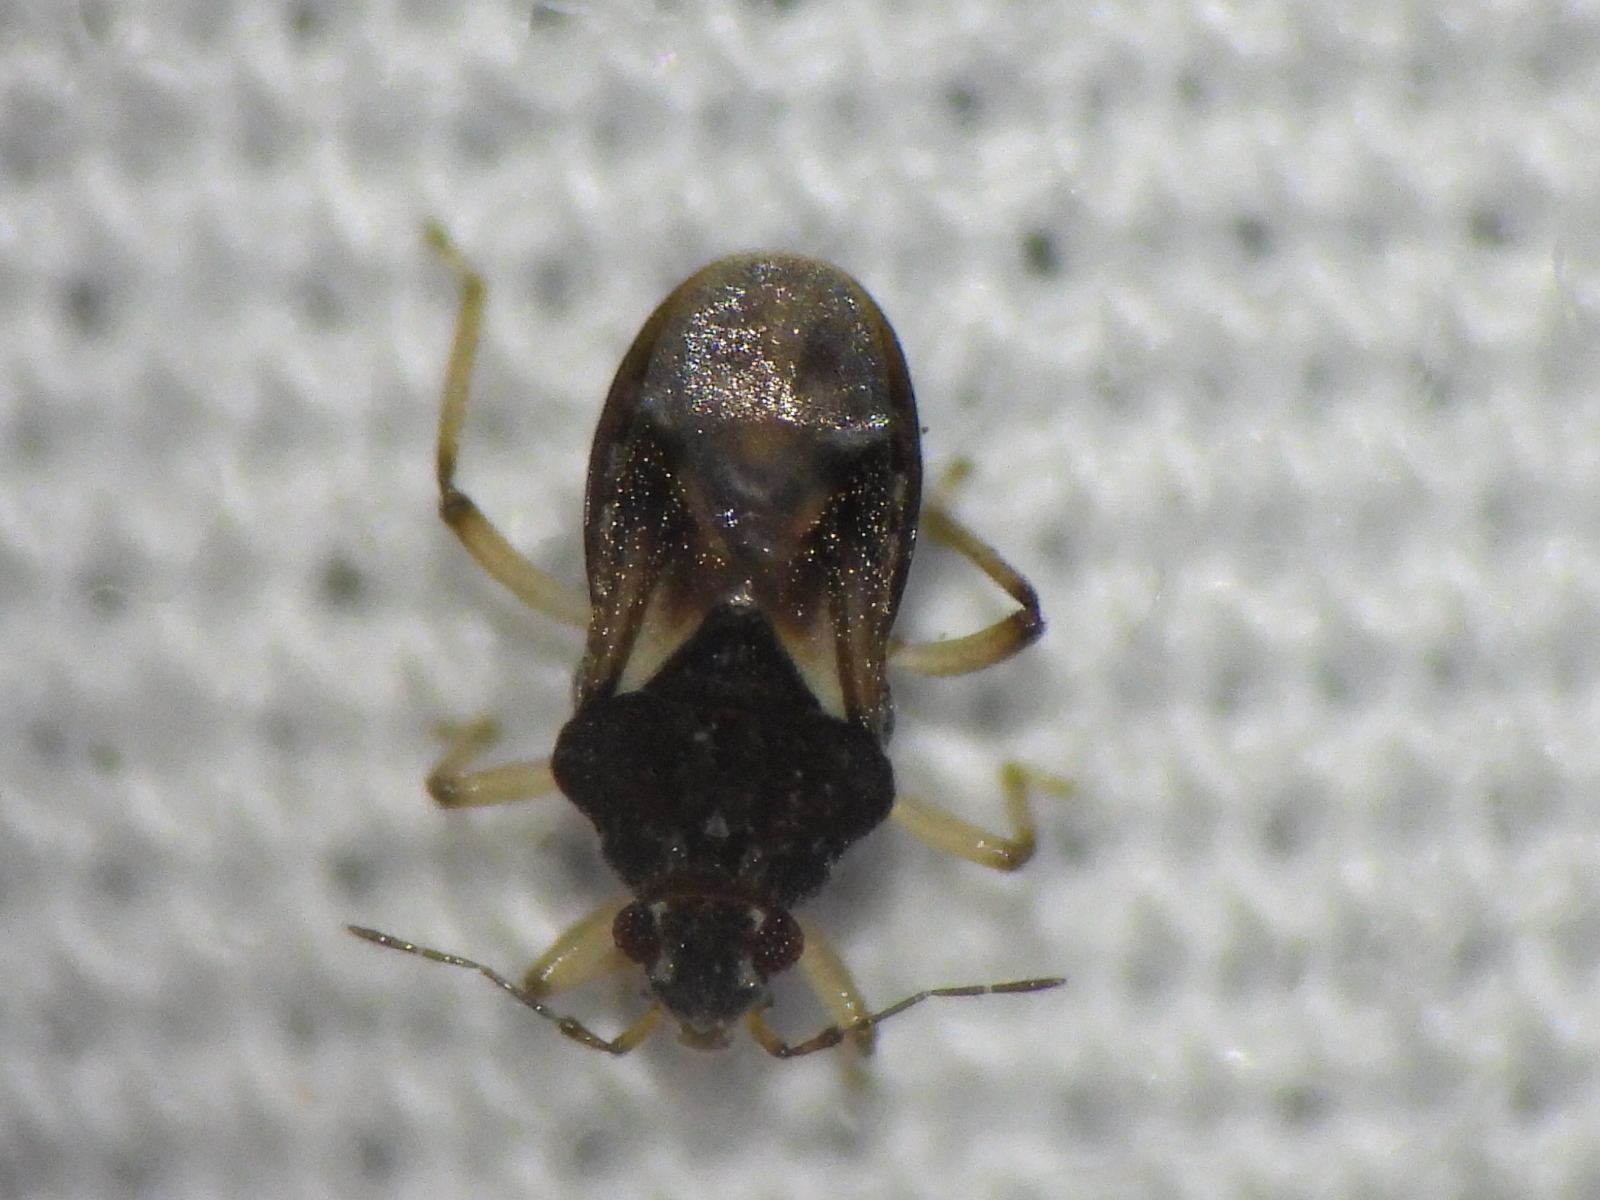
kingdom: Animalia
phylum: Arthropoda
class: Insecta
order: Hemiptera
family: Hebridae
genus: Hebrus
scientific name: Hebrus
